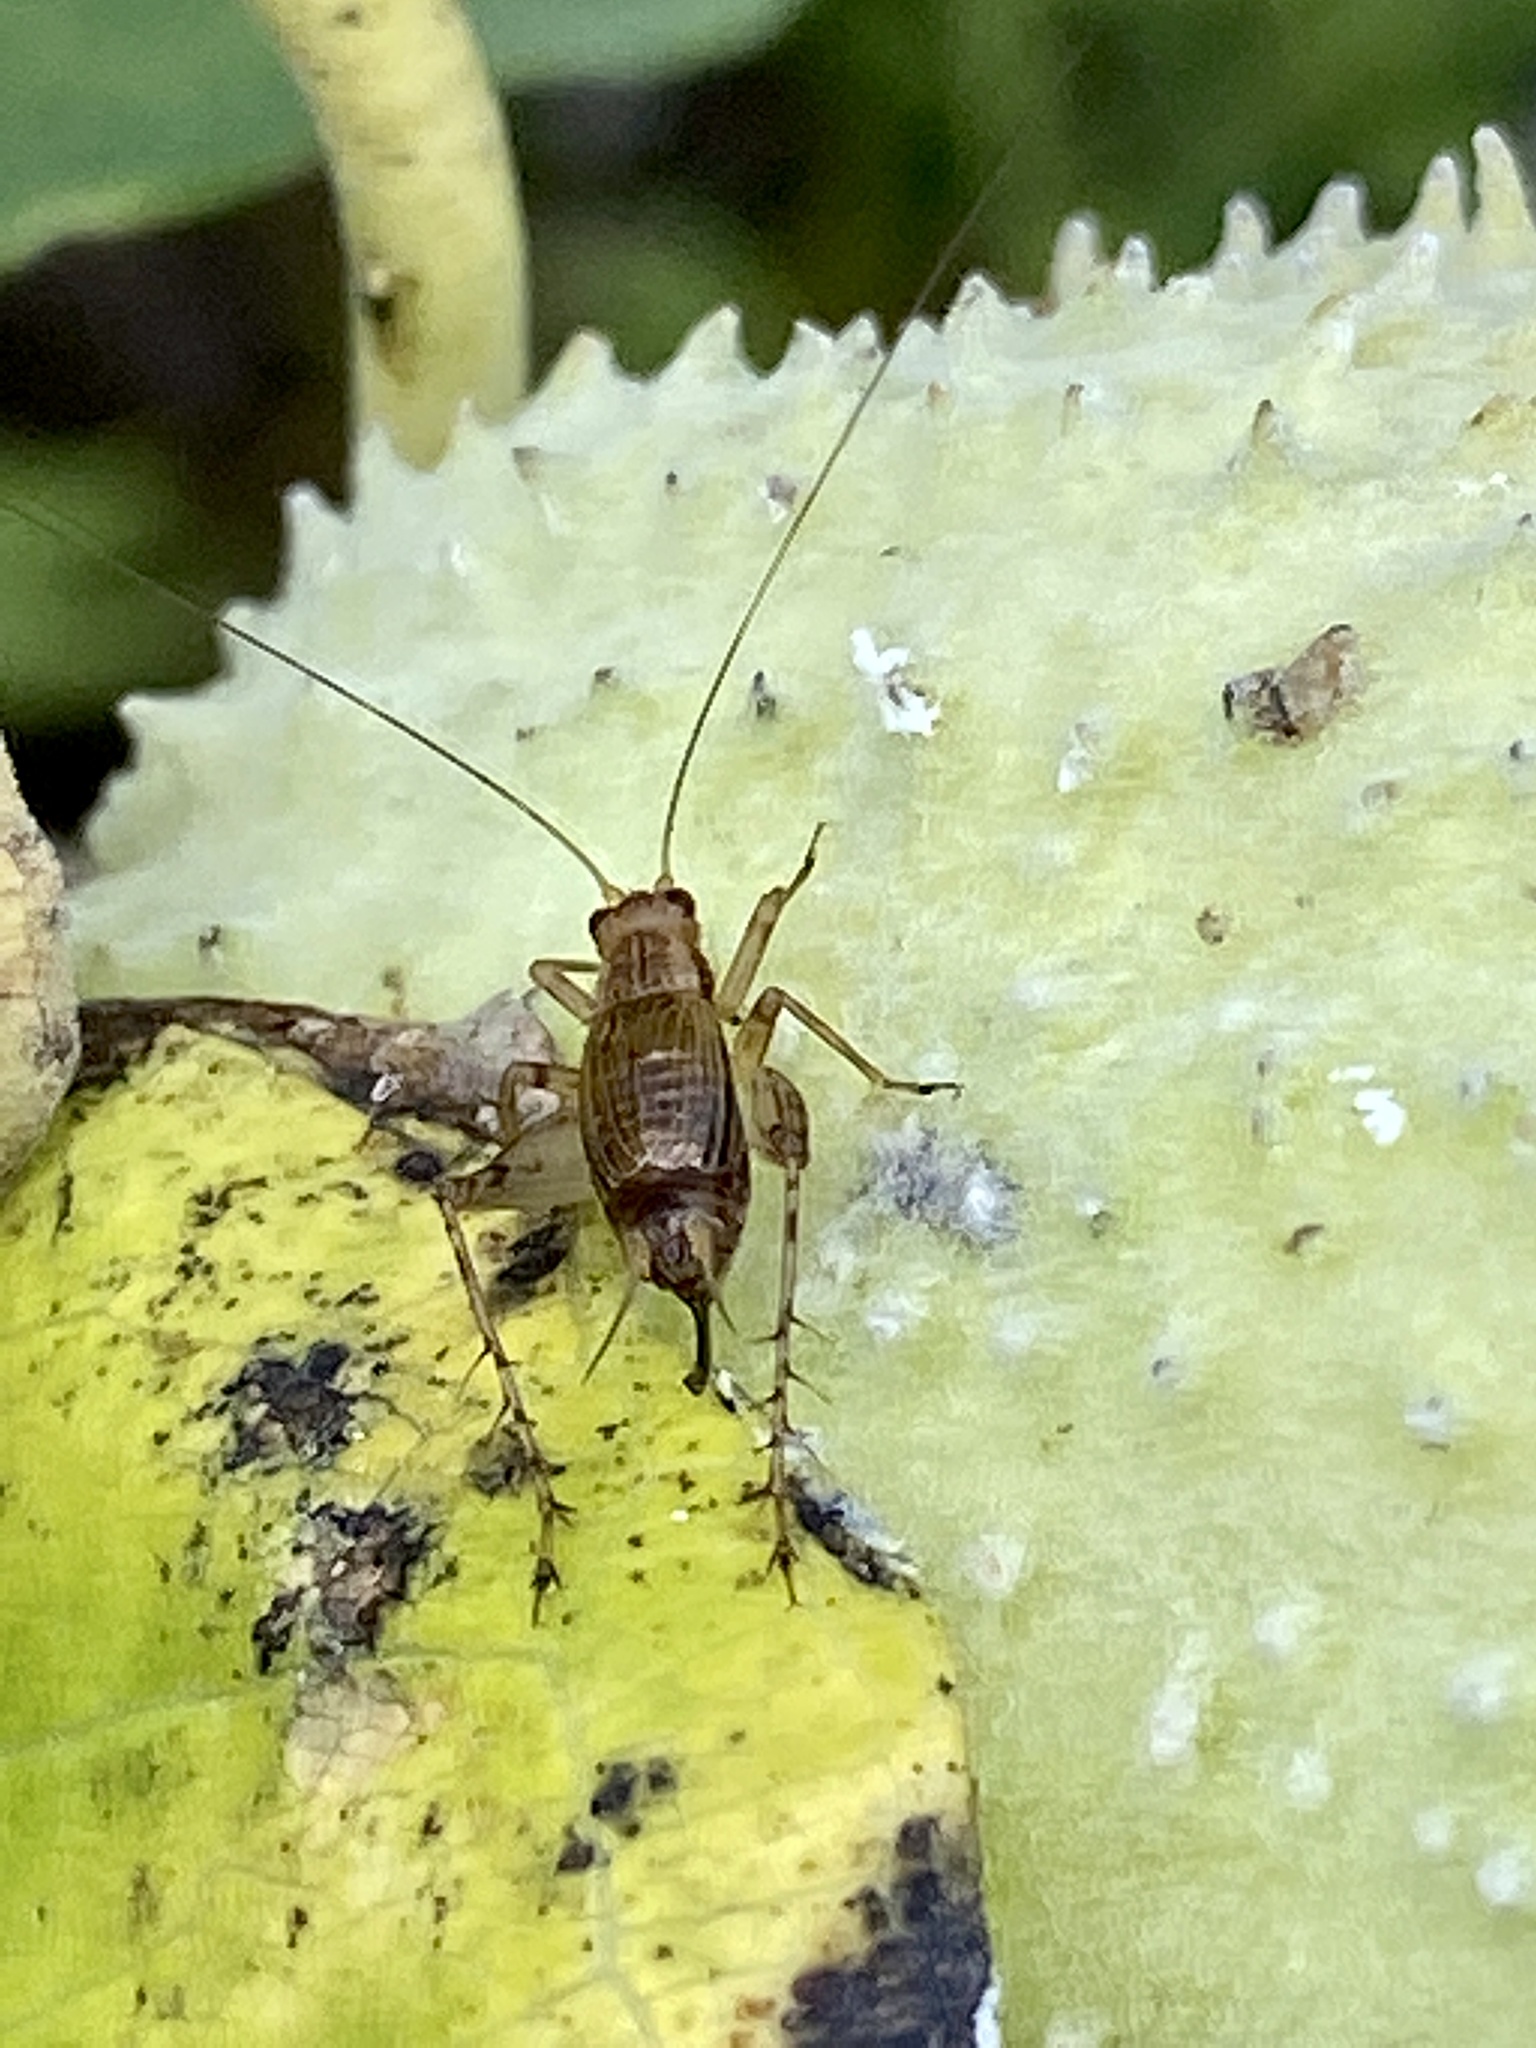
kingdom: Animalia
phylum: Arthropoda
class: Insecta
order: Orthoptera
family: Trigonidiidae
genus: Anaxipha
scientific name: Anaxipha exigua
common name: Say's bush cricket
